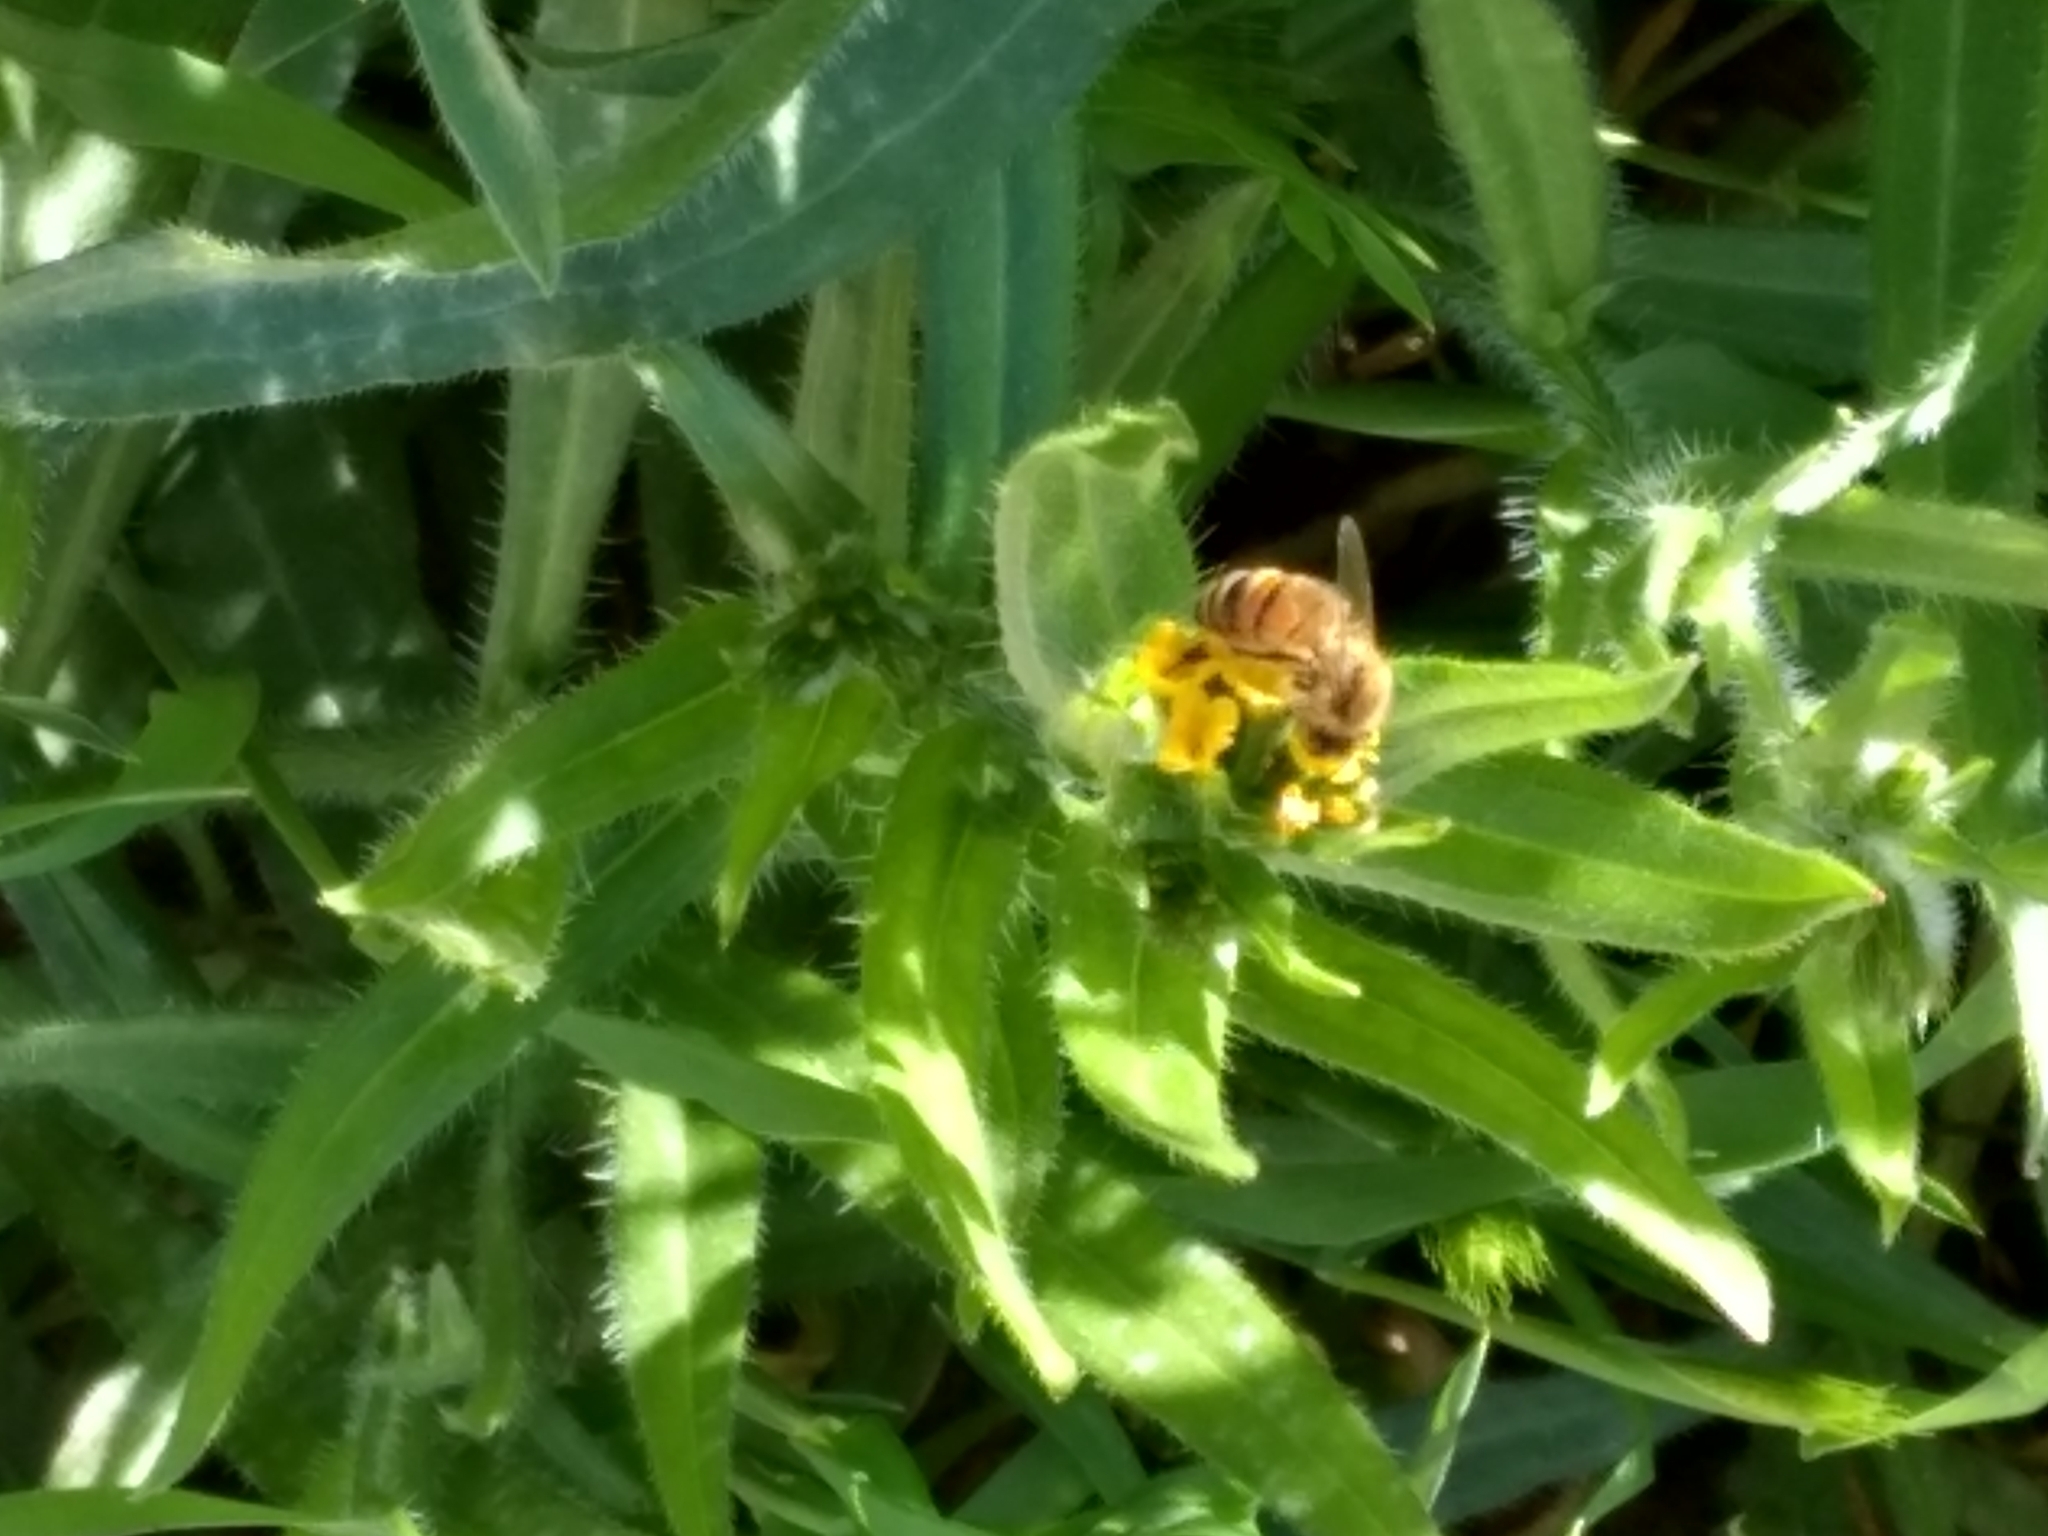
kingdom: Animalia
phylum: Arthropoda
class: Insecta
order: Hymenoptera
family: Apidae
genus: Apis
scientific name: Apis mellifera
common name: Honey bee
